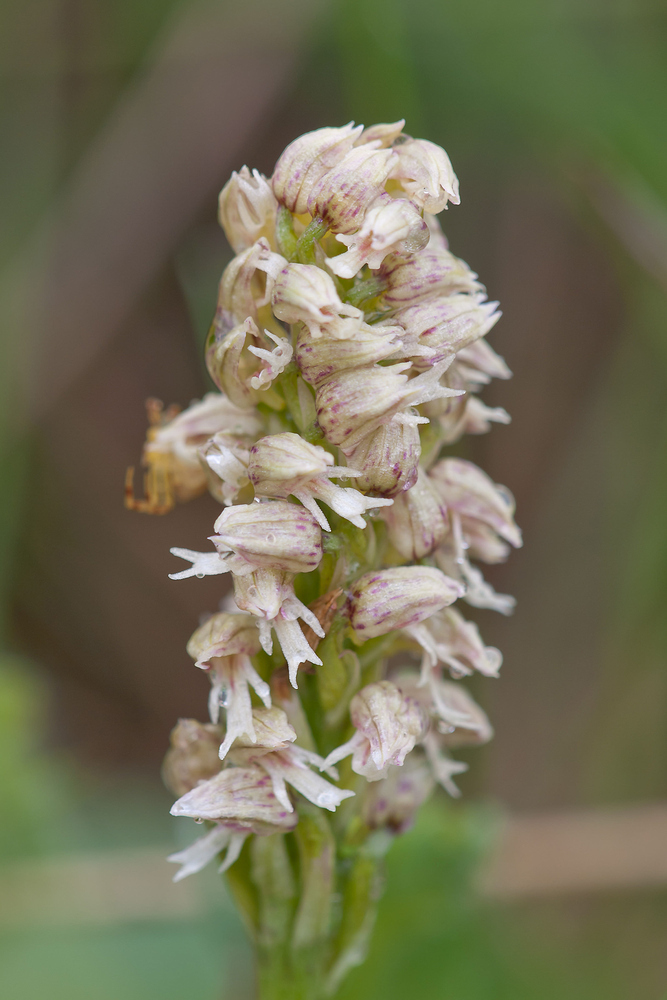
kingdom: Plantae
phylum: Tracheophyta
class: Liliopsida
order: Asparagales
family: Orchidaceae
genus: Neotinea
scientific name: Neotinea maculata
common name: Dense-flowered orchid
